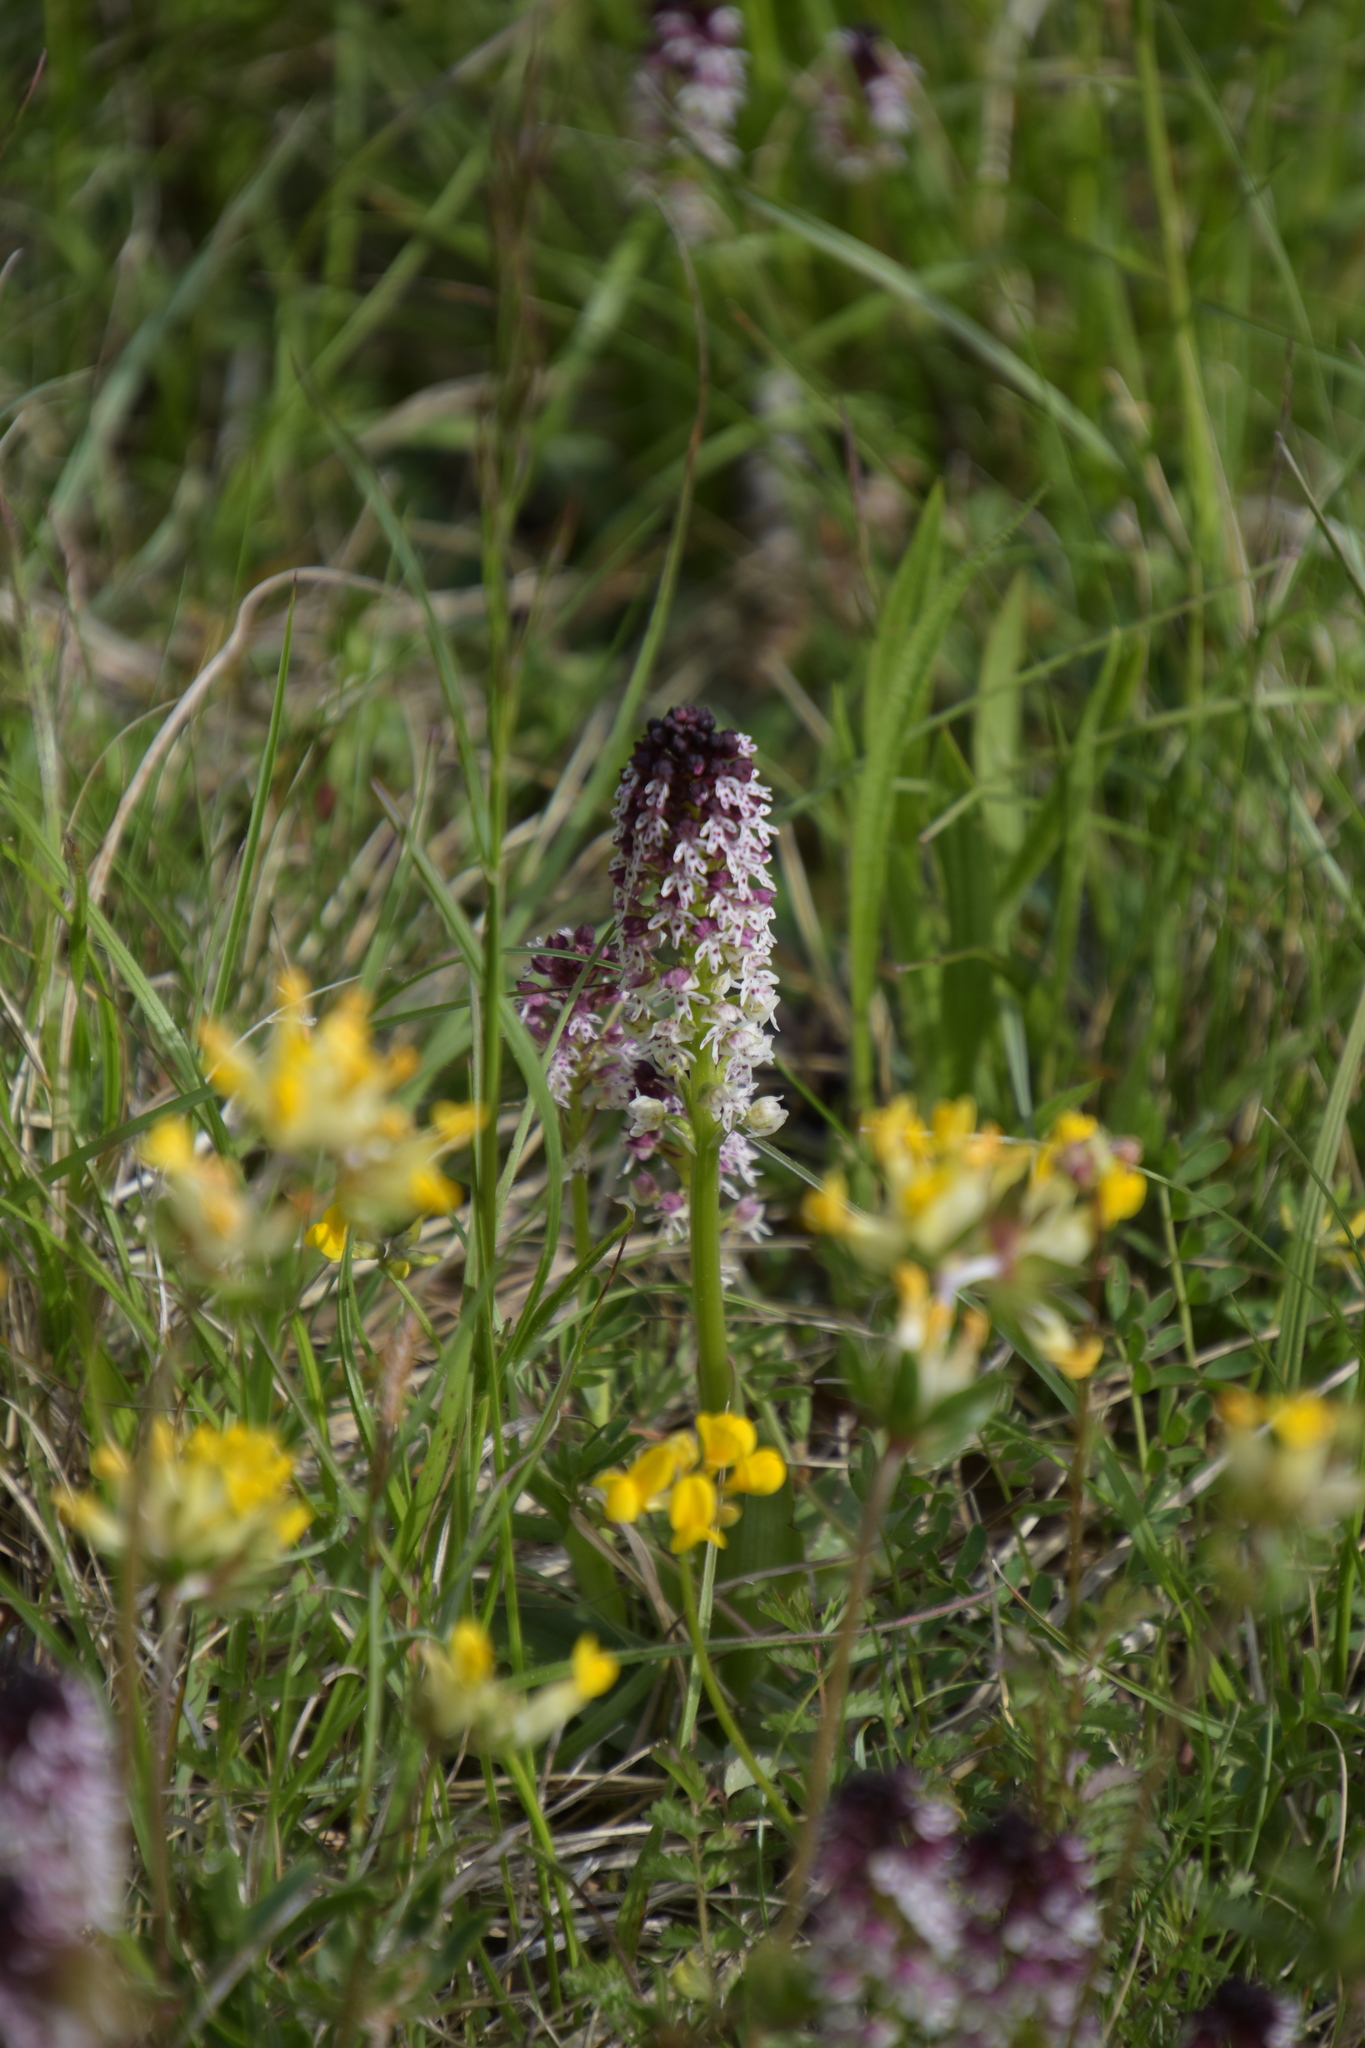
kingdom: Plantae
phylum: Tracheophyta
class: Liliopsida
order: Asparagales
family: Orchidaceae
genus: Neotinea
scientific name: Neotinea ustulata
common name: Burnt orchid
